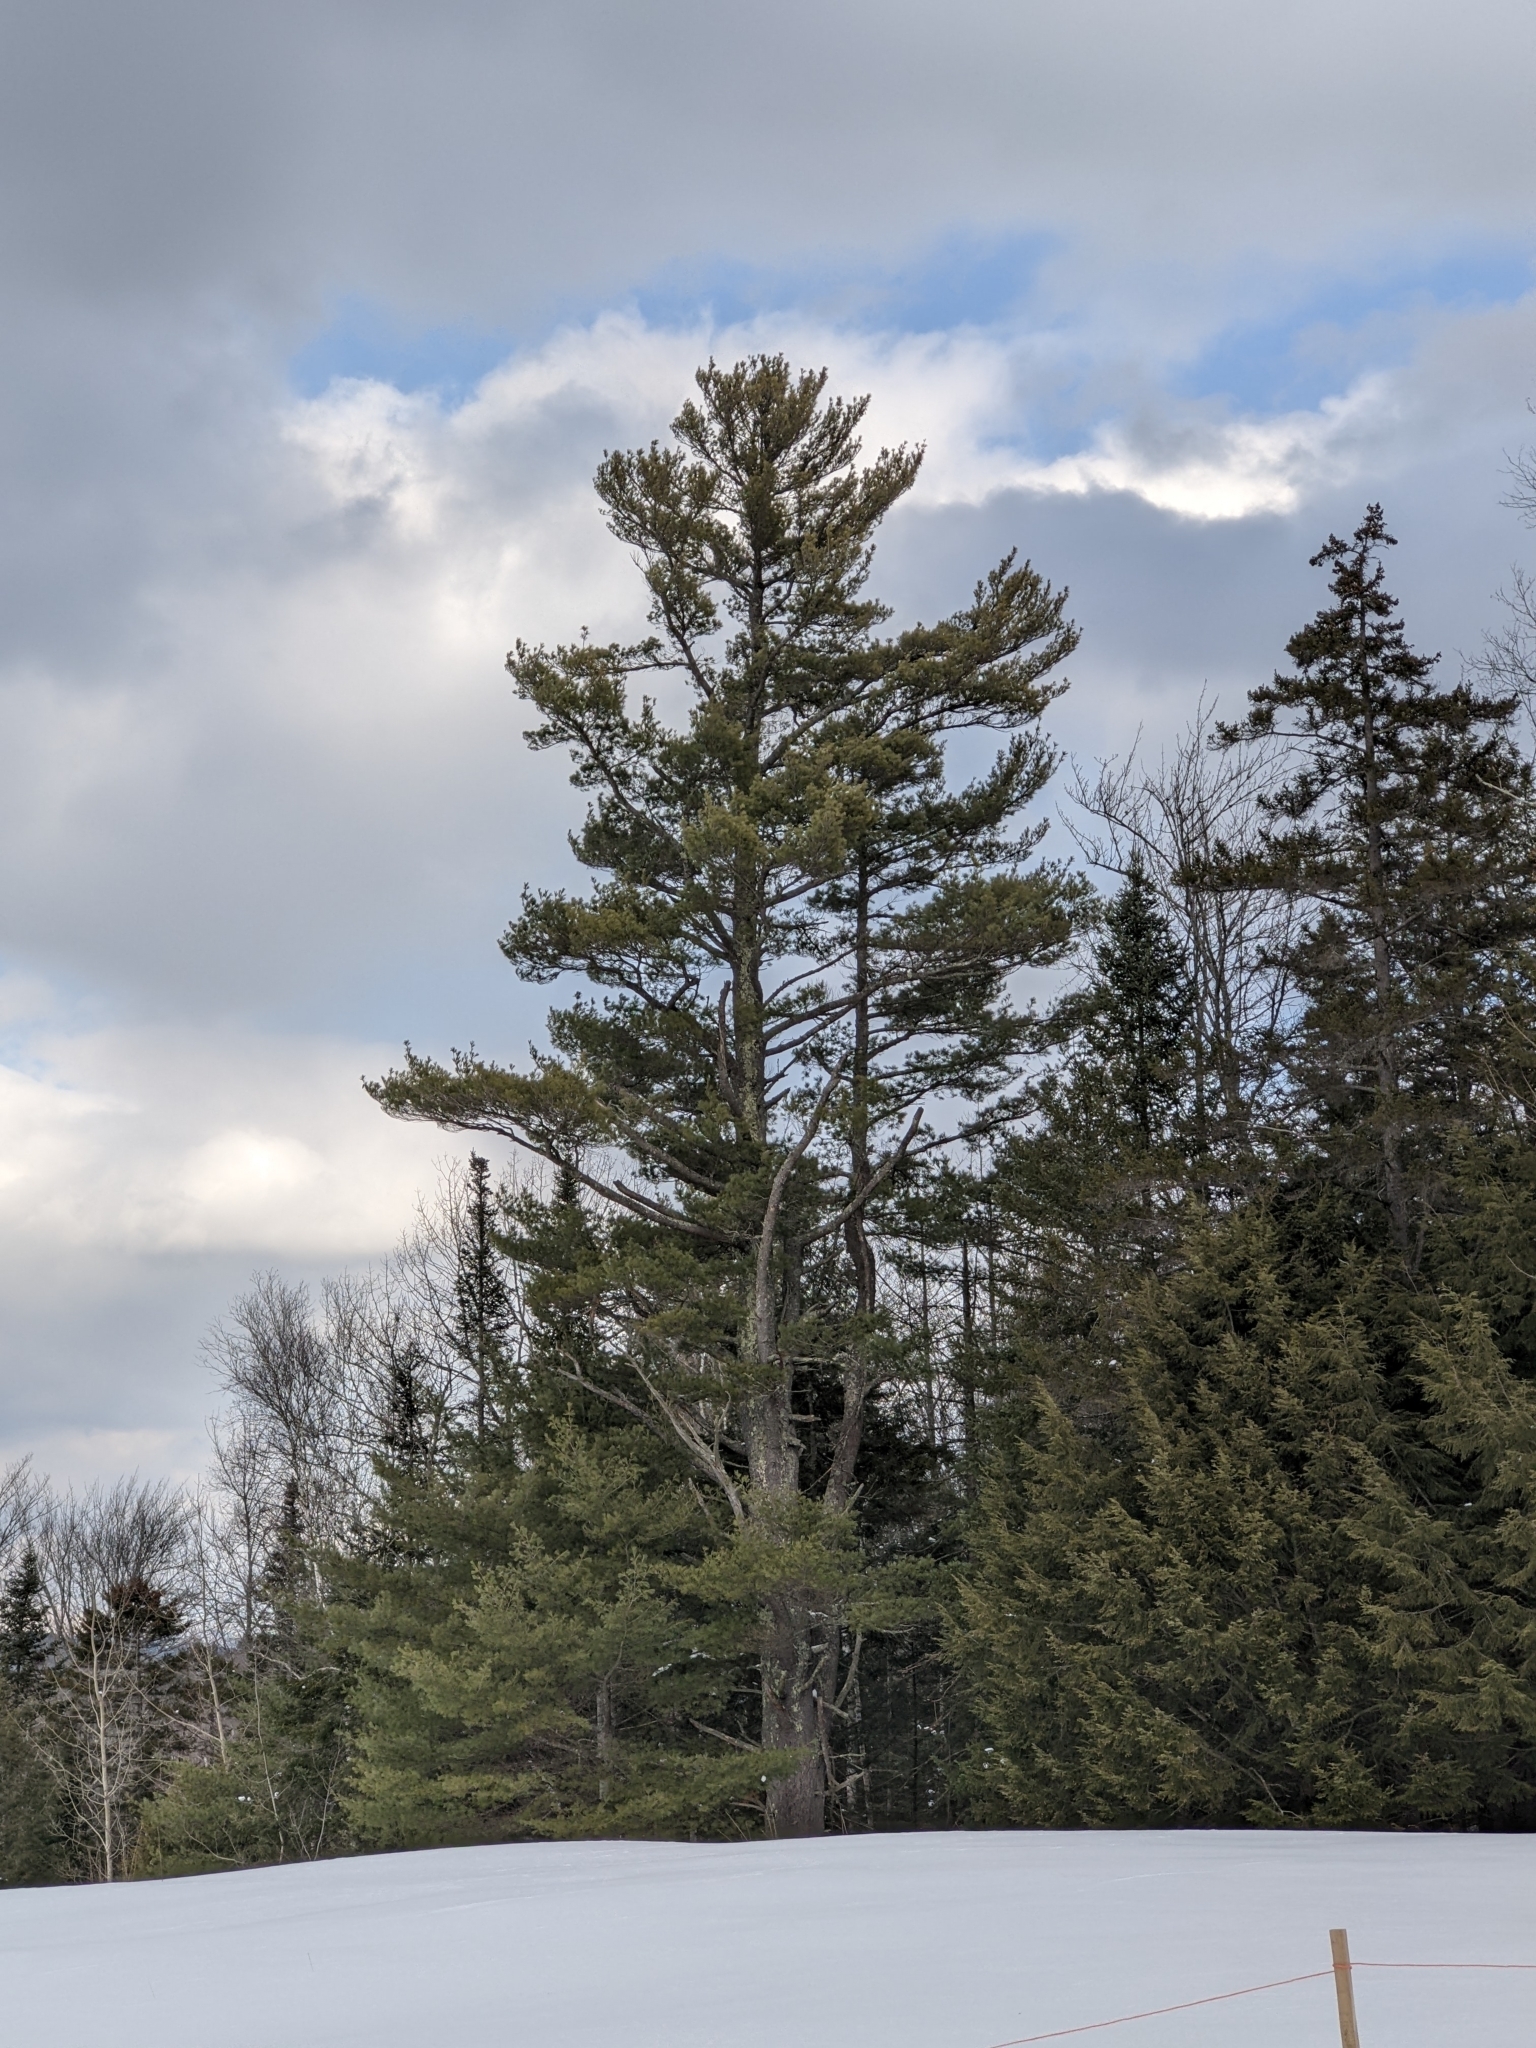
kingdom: Plantae
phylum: Tracheophyta
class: Pinopsida
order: Pinales
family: Pinaceae
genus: Pinus
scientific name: Pinus strobus
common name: Weymouth pine
